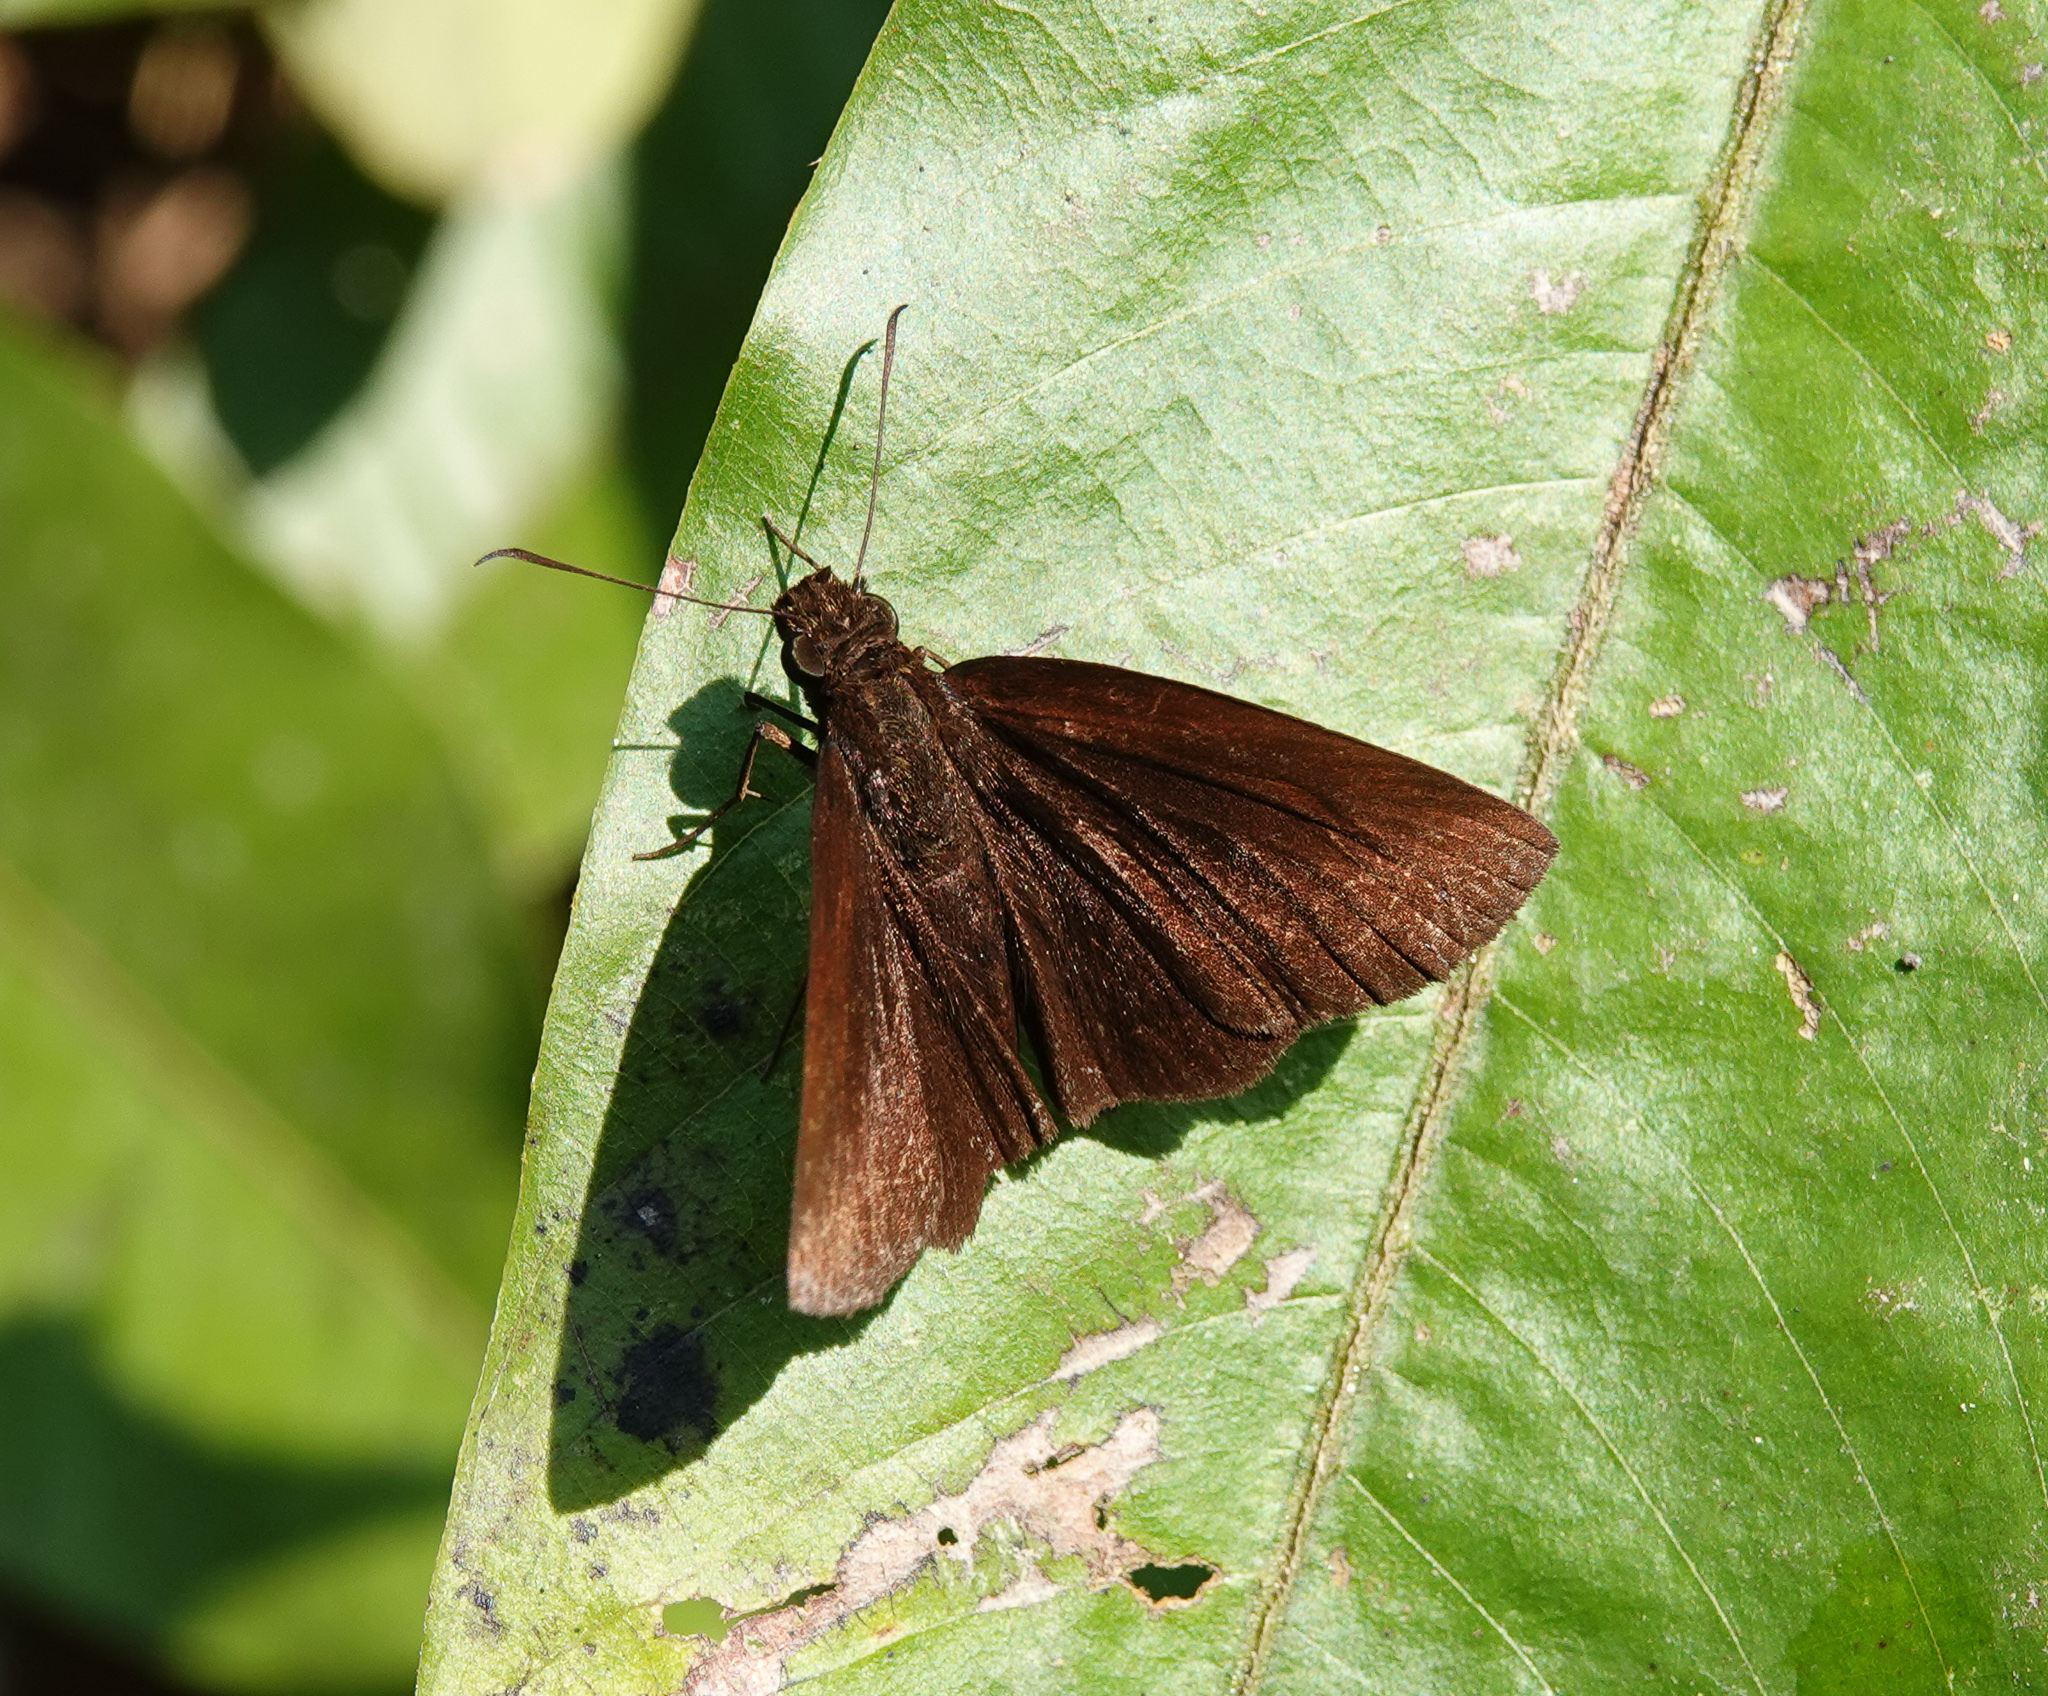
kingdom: Animalia
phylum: Arthropoda
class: Insecta
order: Lepidoptera
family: Hesperiidae
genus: Ancistroides
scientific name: Ancistroides nigrita
